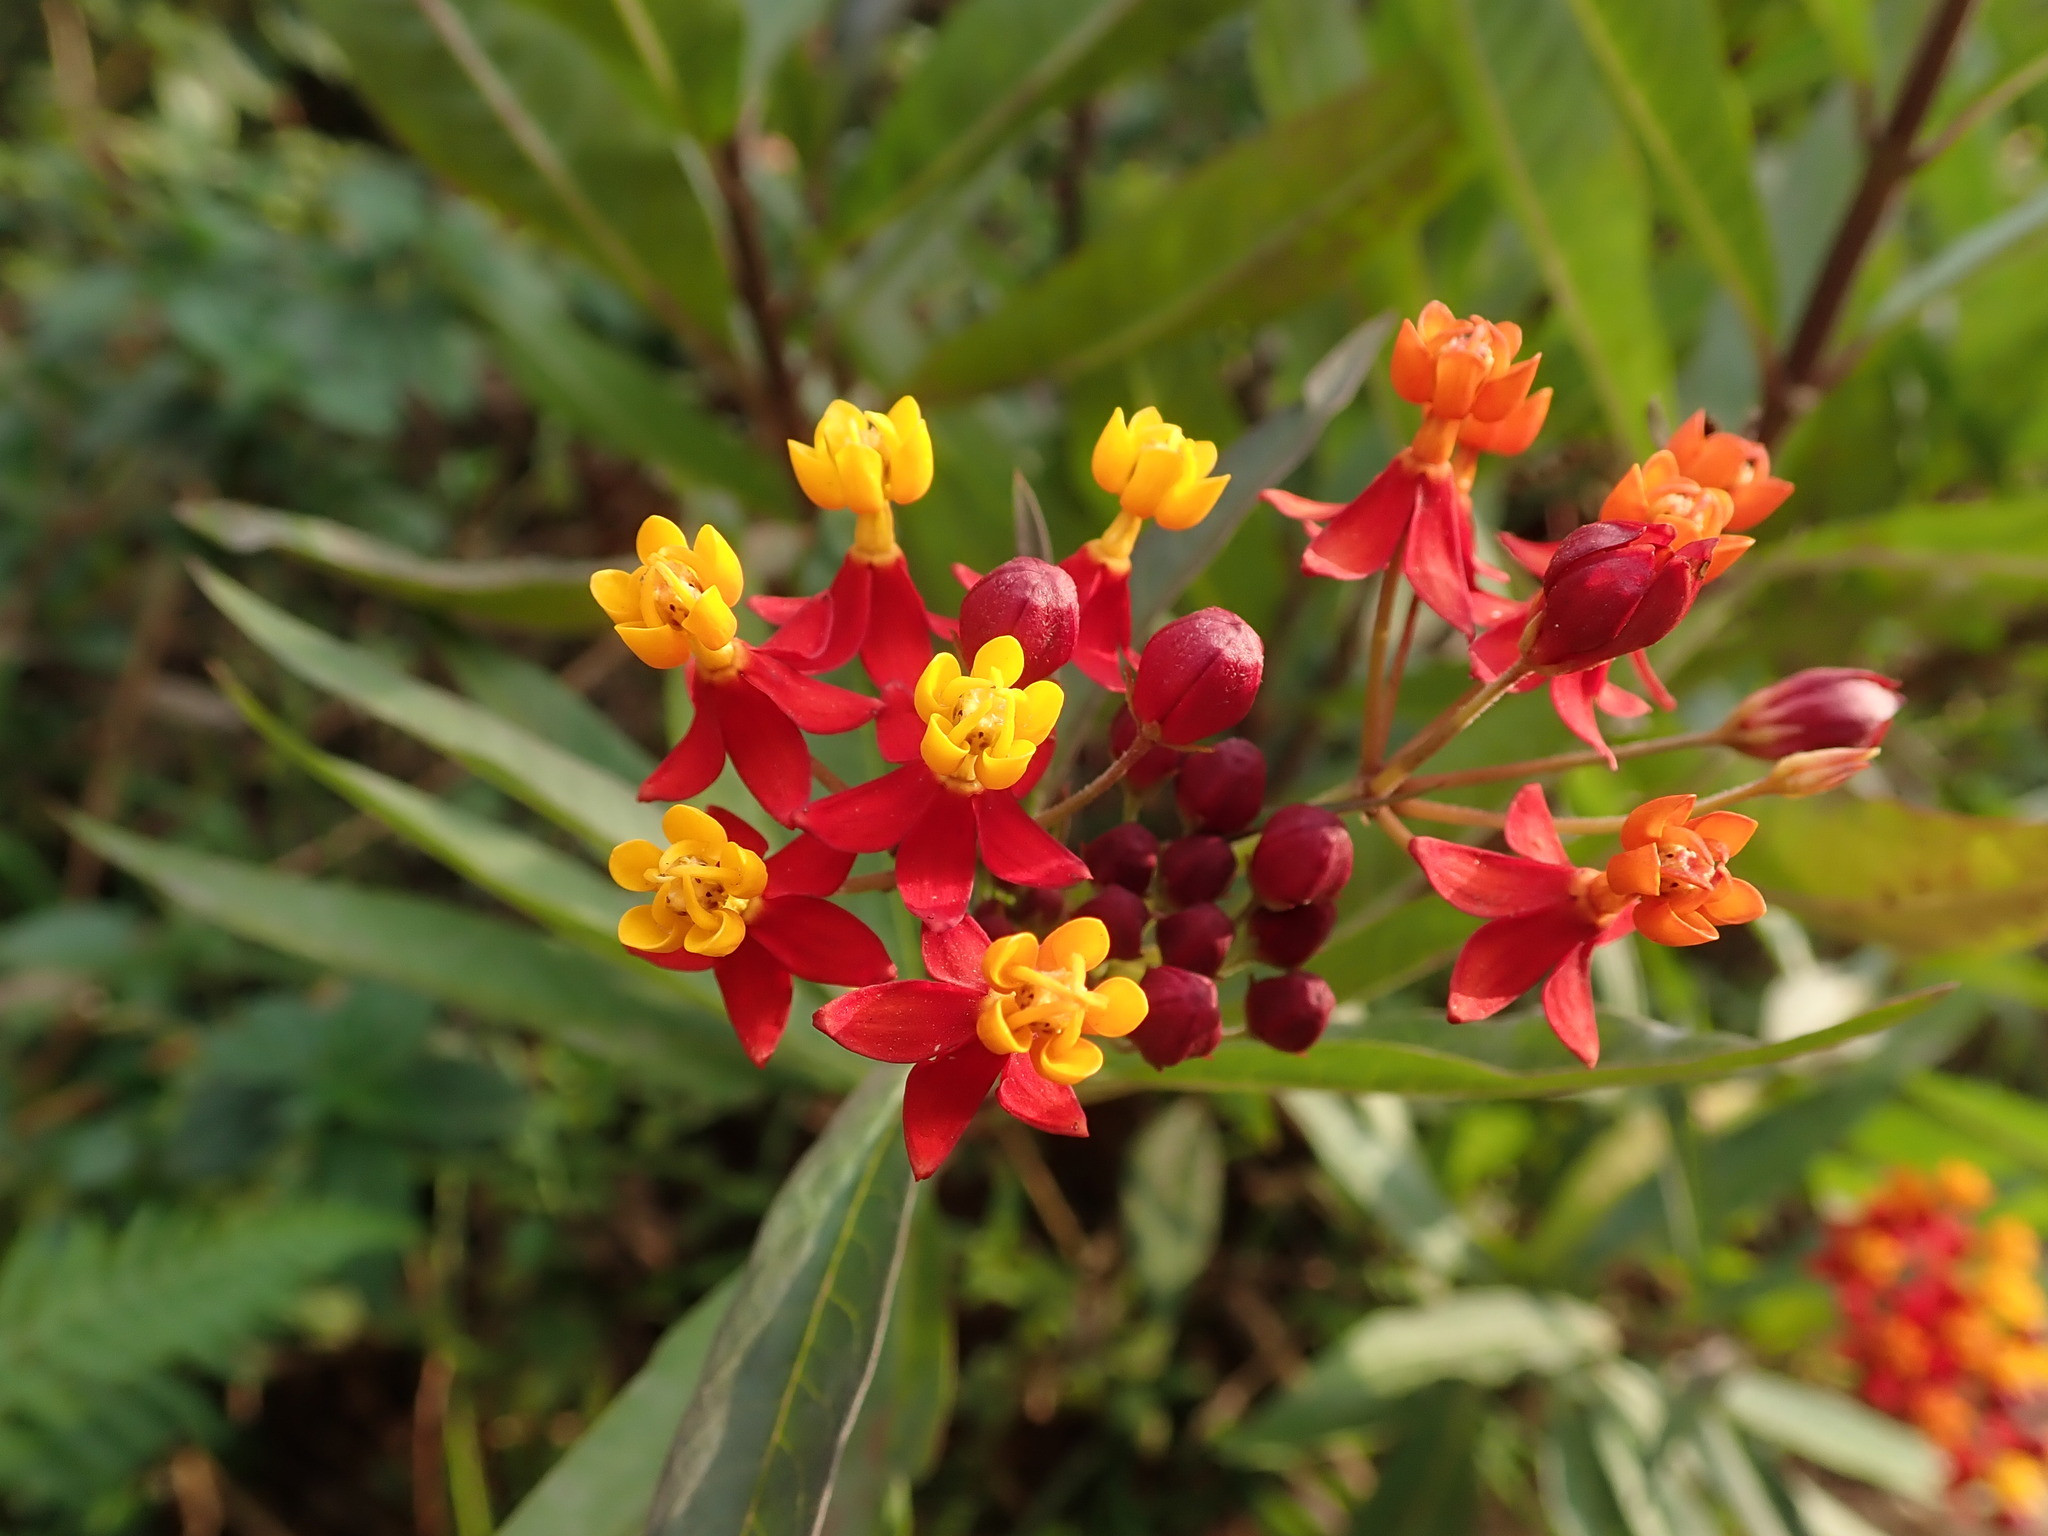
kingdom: Plantae
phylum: Tracheophyta
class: Magnoliopsida
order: Gentianales
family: Apocynaceae
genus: Asclepias
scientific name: Asclepias curassavica
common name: Bloodflower
